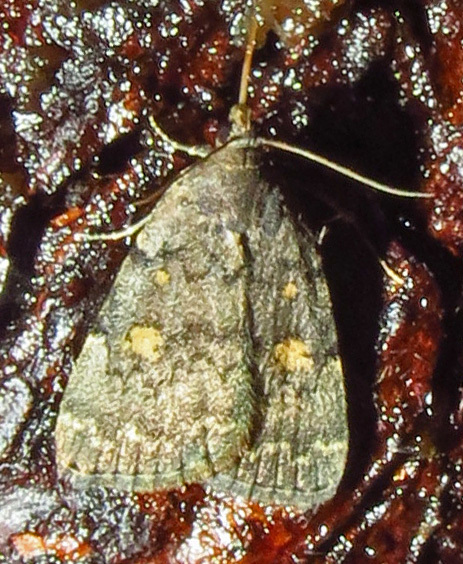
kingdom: Animalia
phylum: Arthropoda
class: Insecta
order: Lepidoptera
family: Erebidae
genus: Idia
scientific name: Idia americalis
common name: American idia moth
